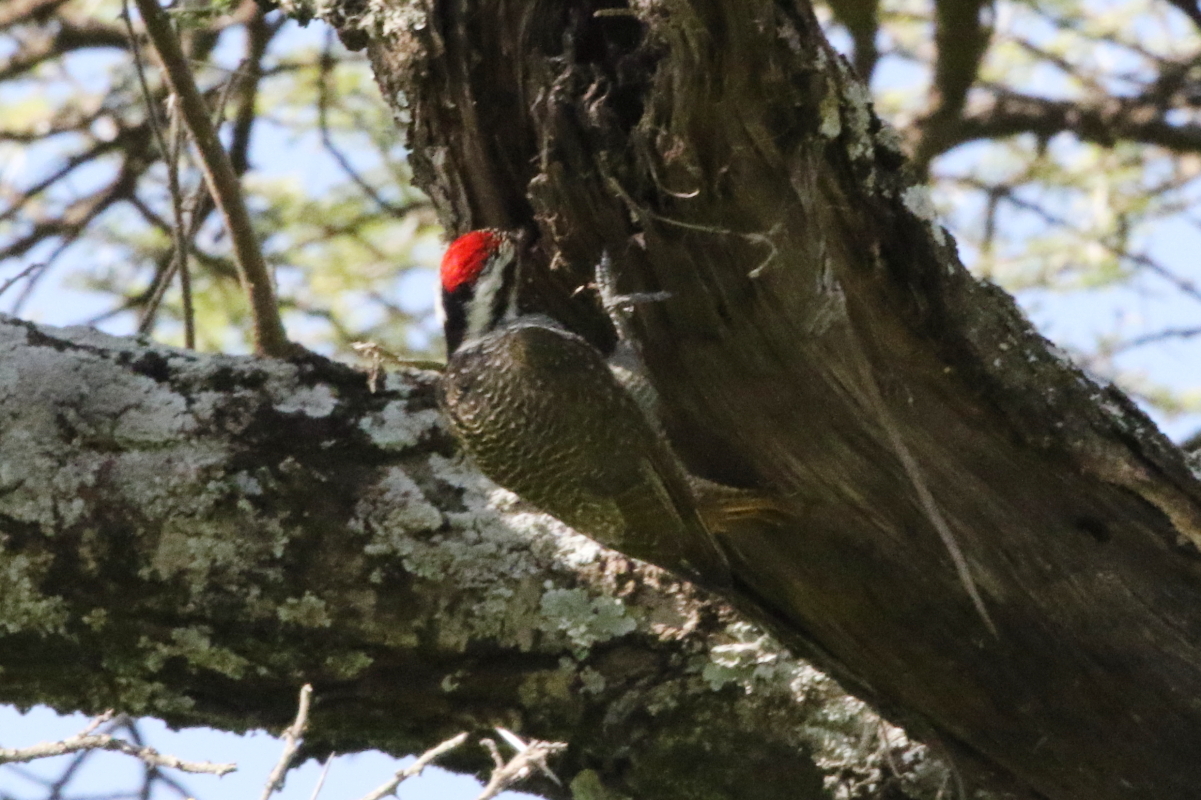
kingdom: Animalia
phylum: Chordata
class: Aves
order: Piciformes
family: Picidae
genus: Chloropicus
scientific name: Chloropicus namaquus
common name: Bearded woodpecker
